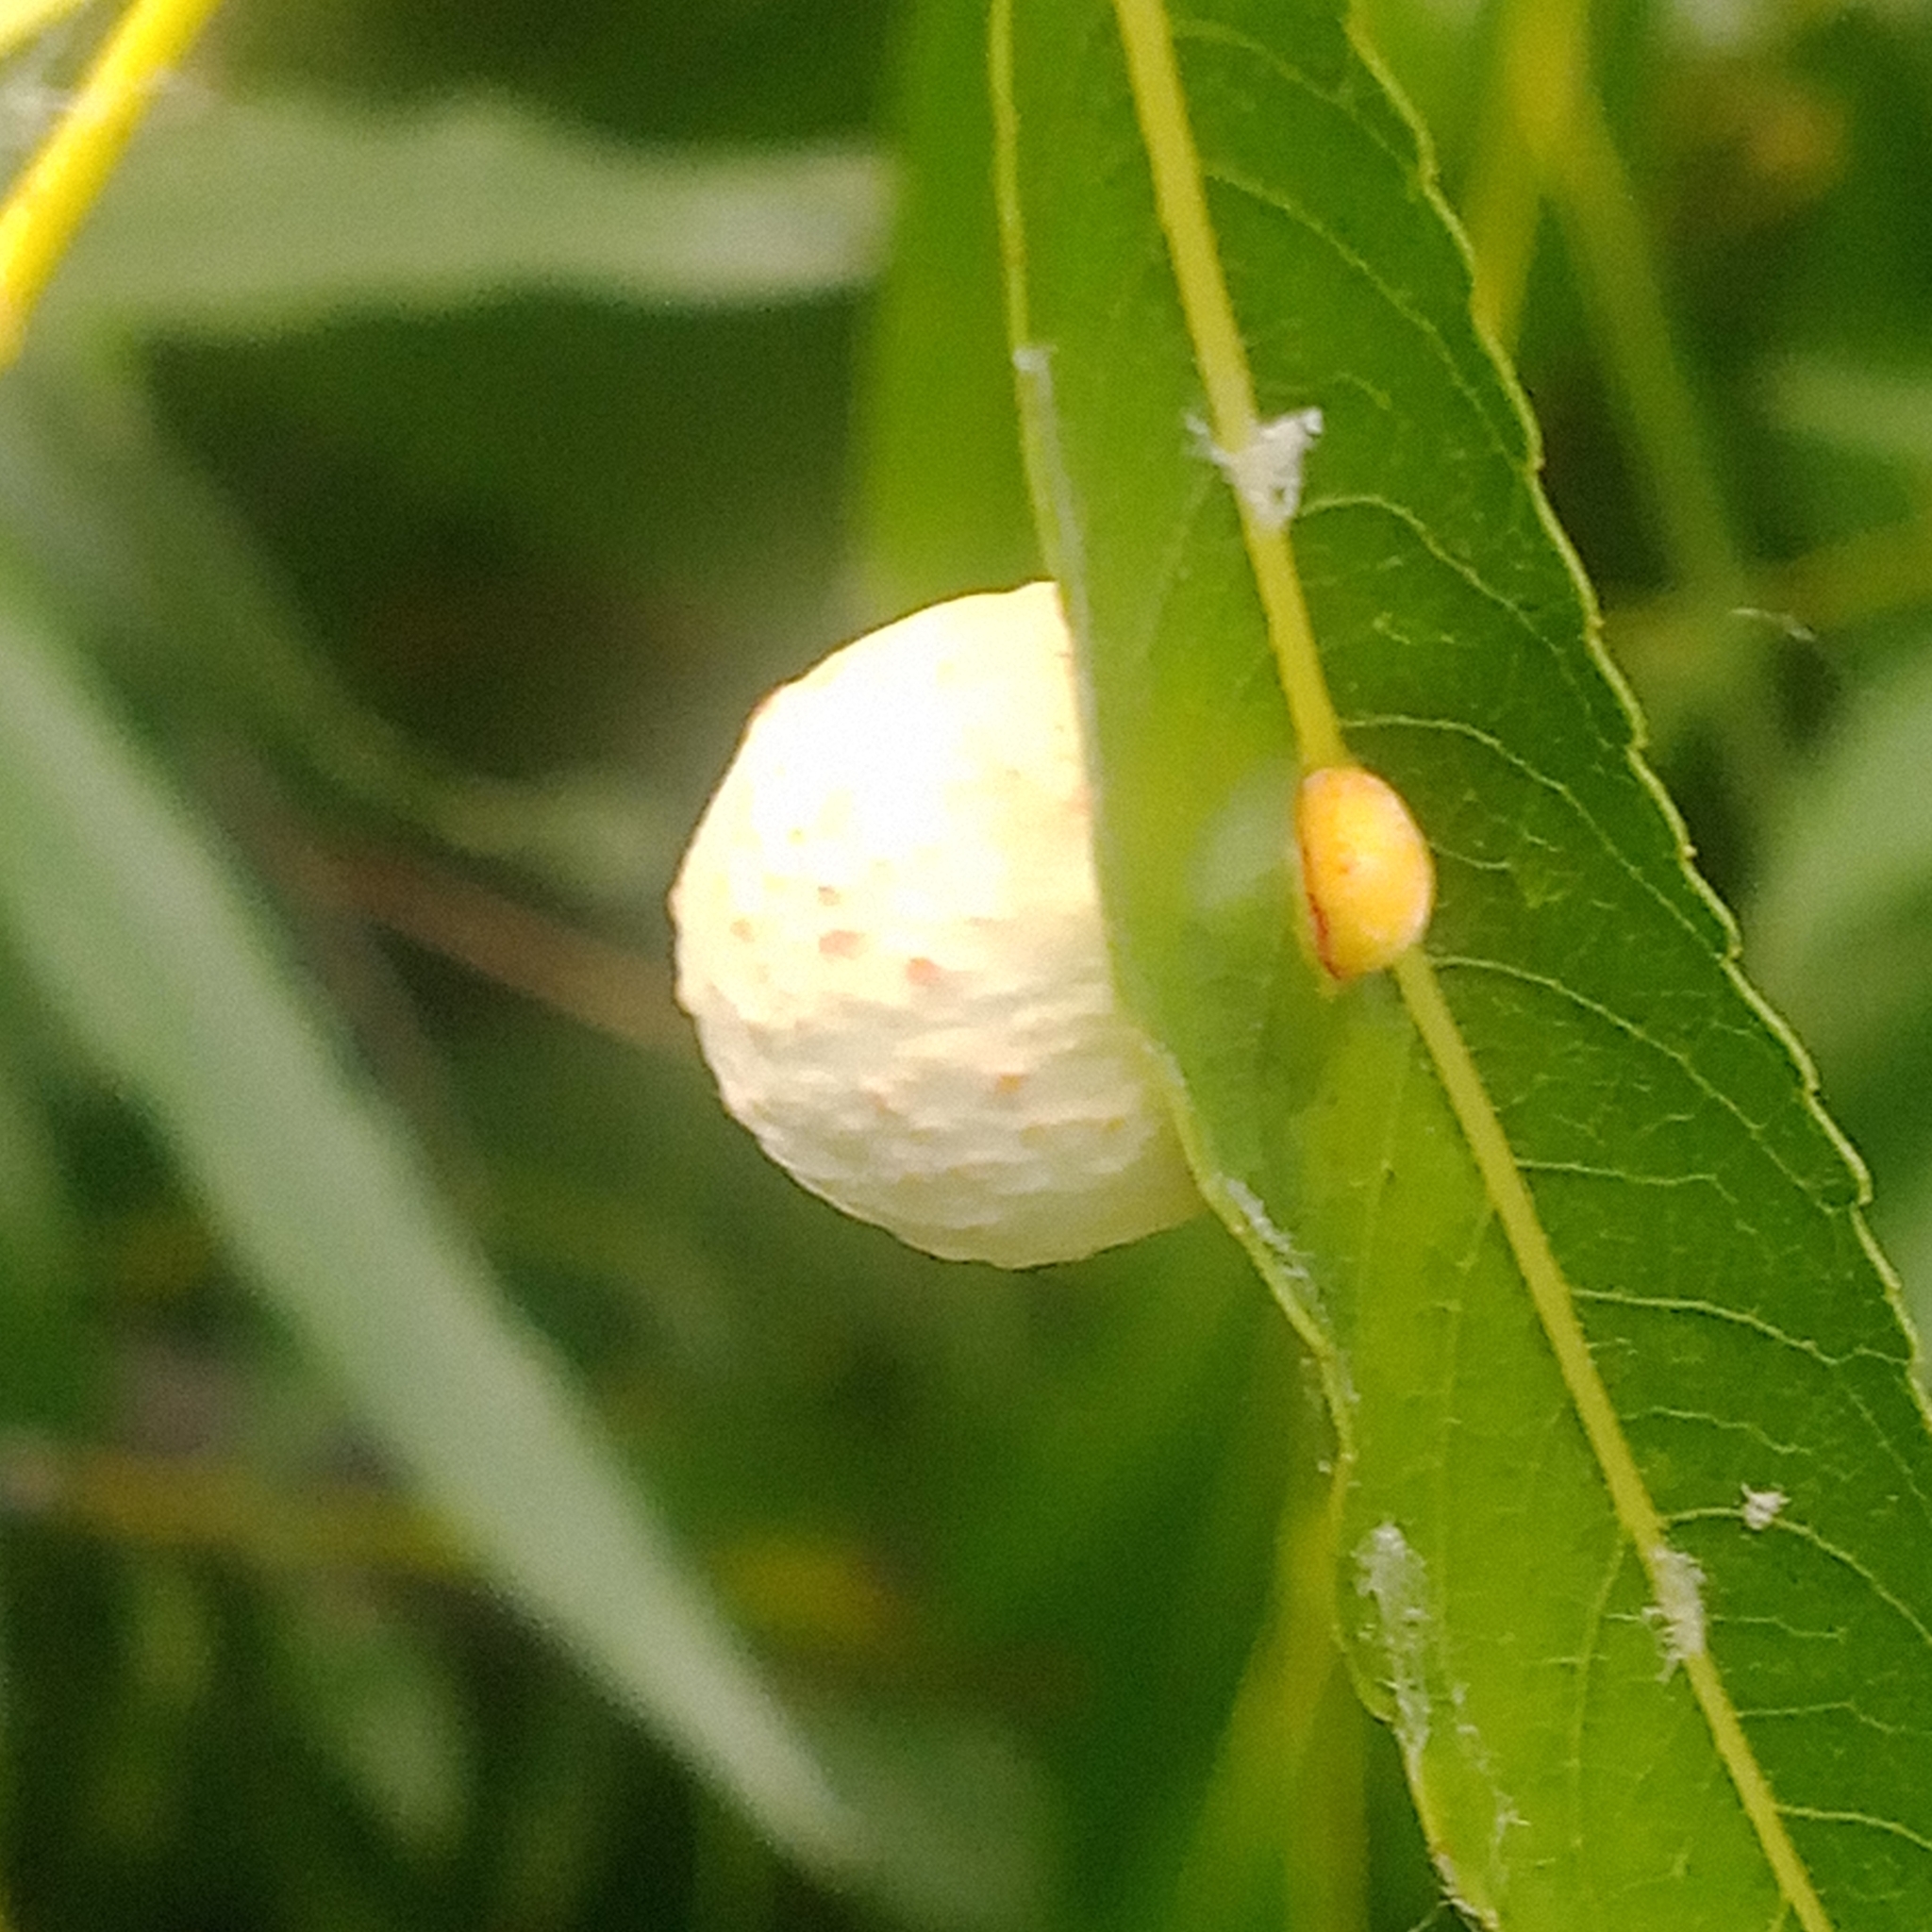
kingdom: Animalia
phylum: Arthropoda
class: Insecta
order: Hymenoptera
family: Tenthredinidae
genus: Euura
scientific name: Euura acutifoliae
